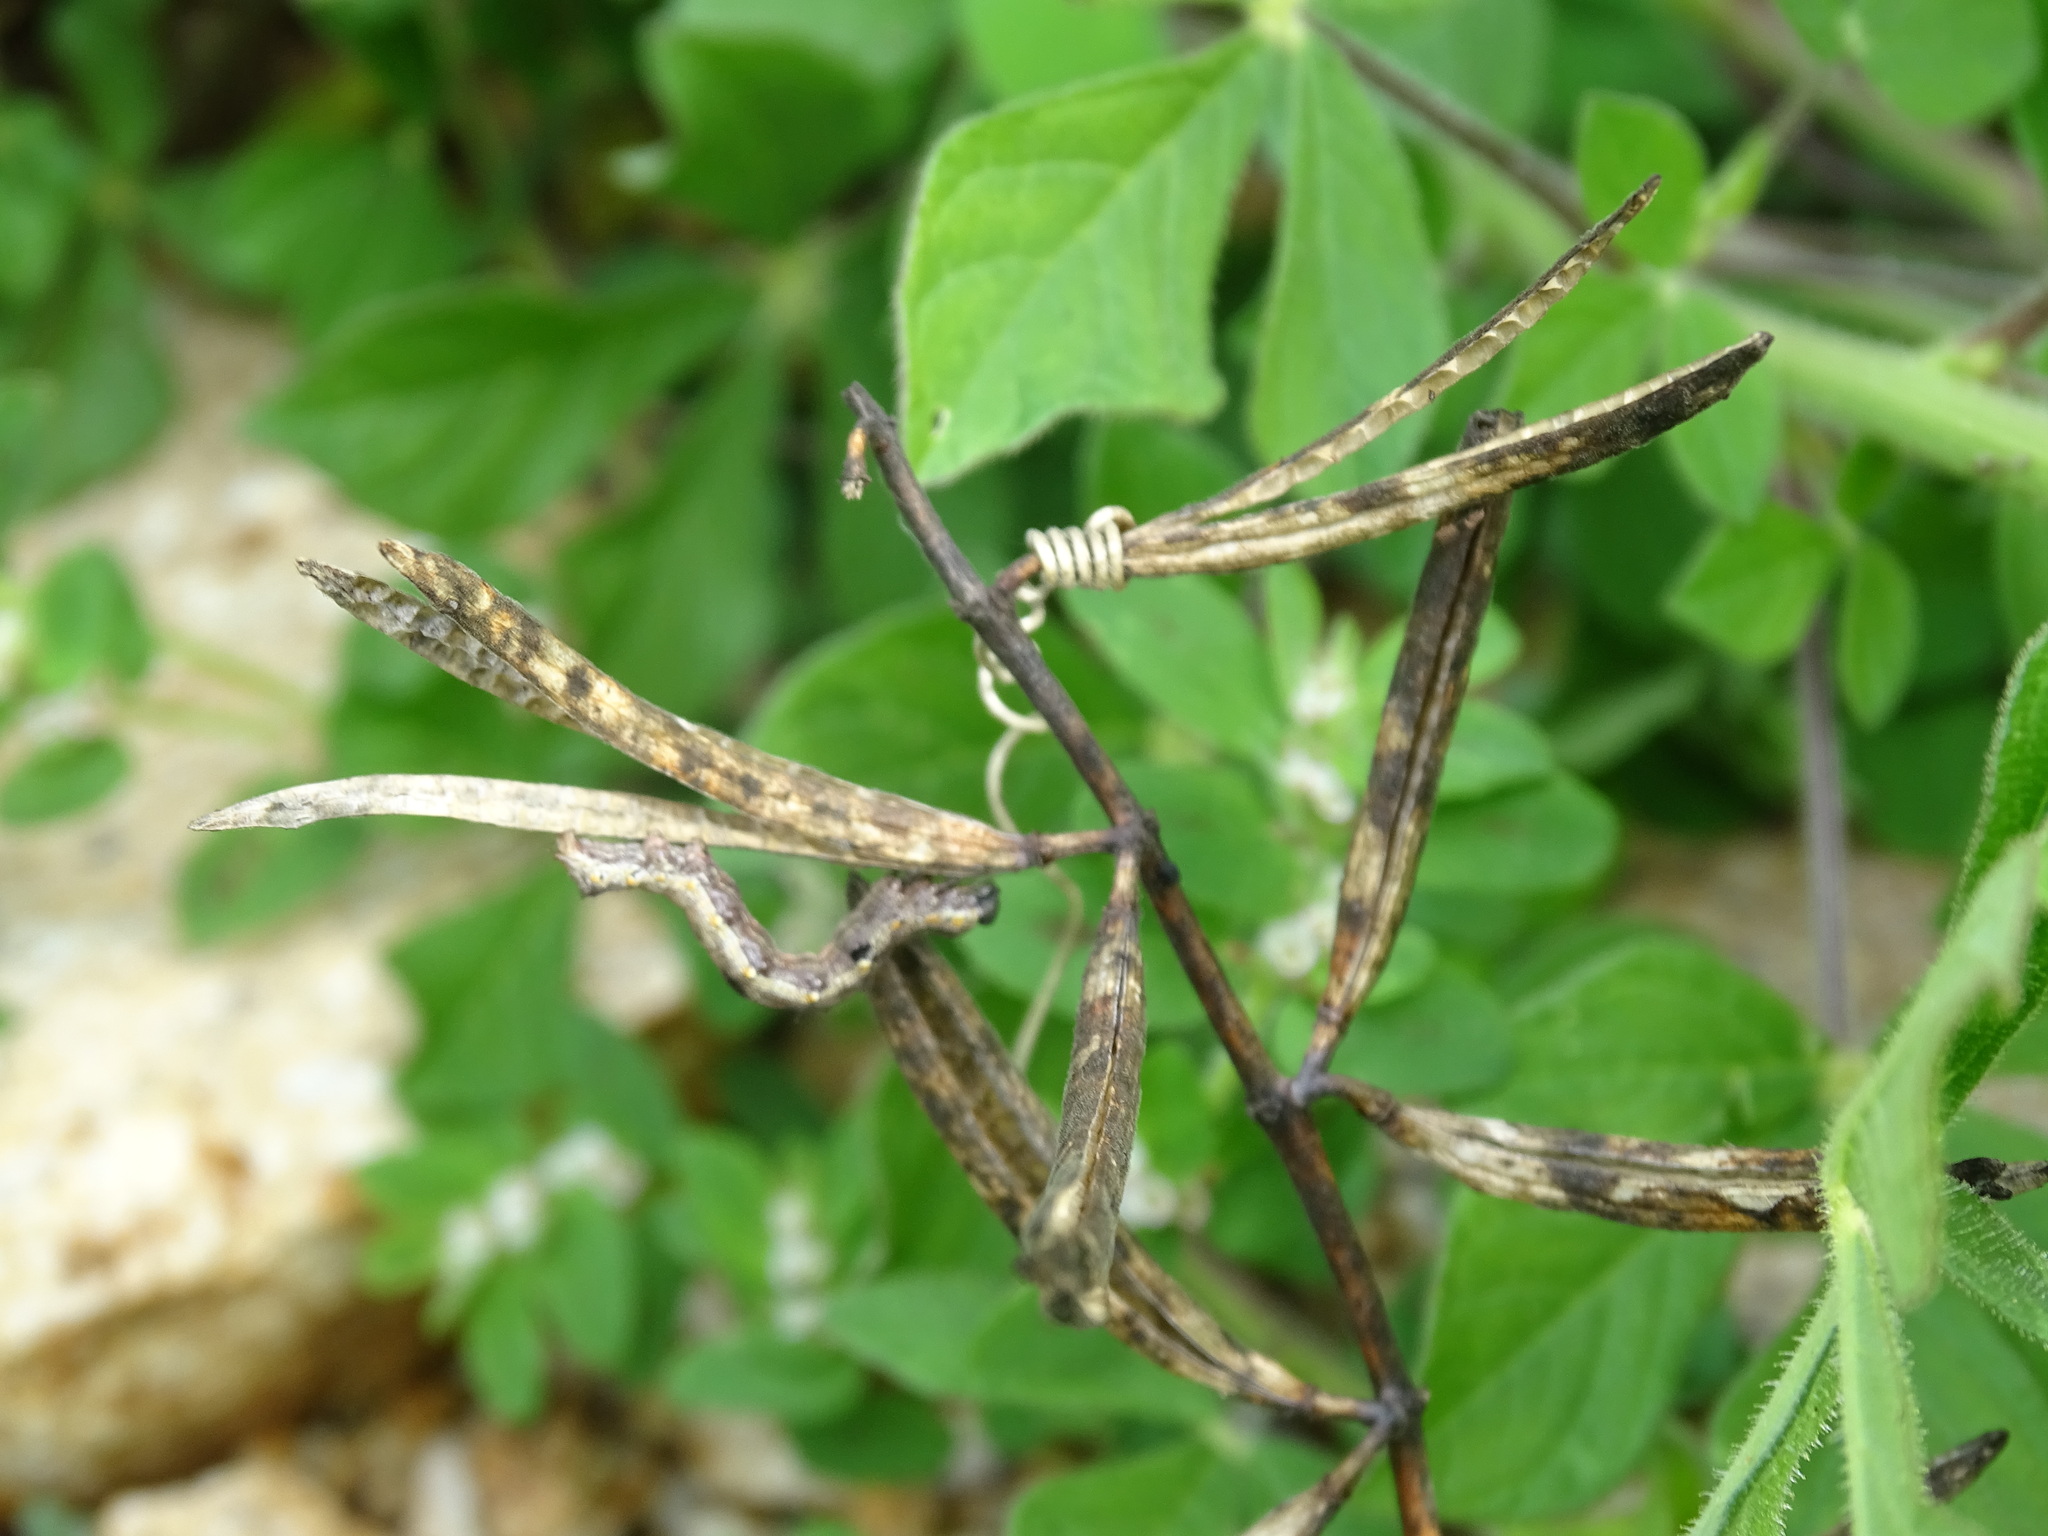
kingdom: Plantae
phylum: Tracheophyta
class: Magnoliopsida
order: Malvales
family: Malvaceae
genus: Corchorus
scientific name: Corchorus siliquosus
